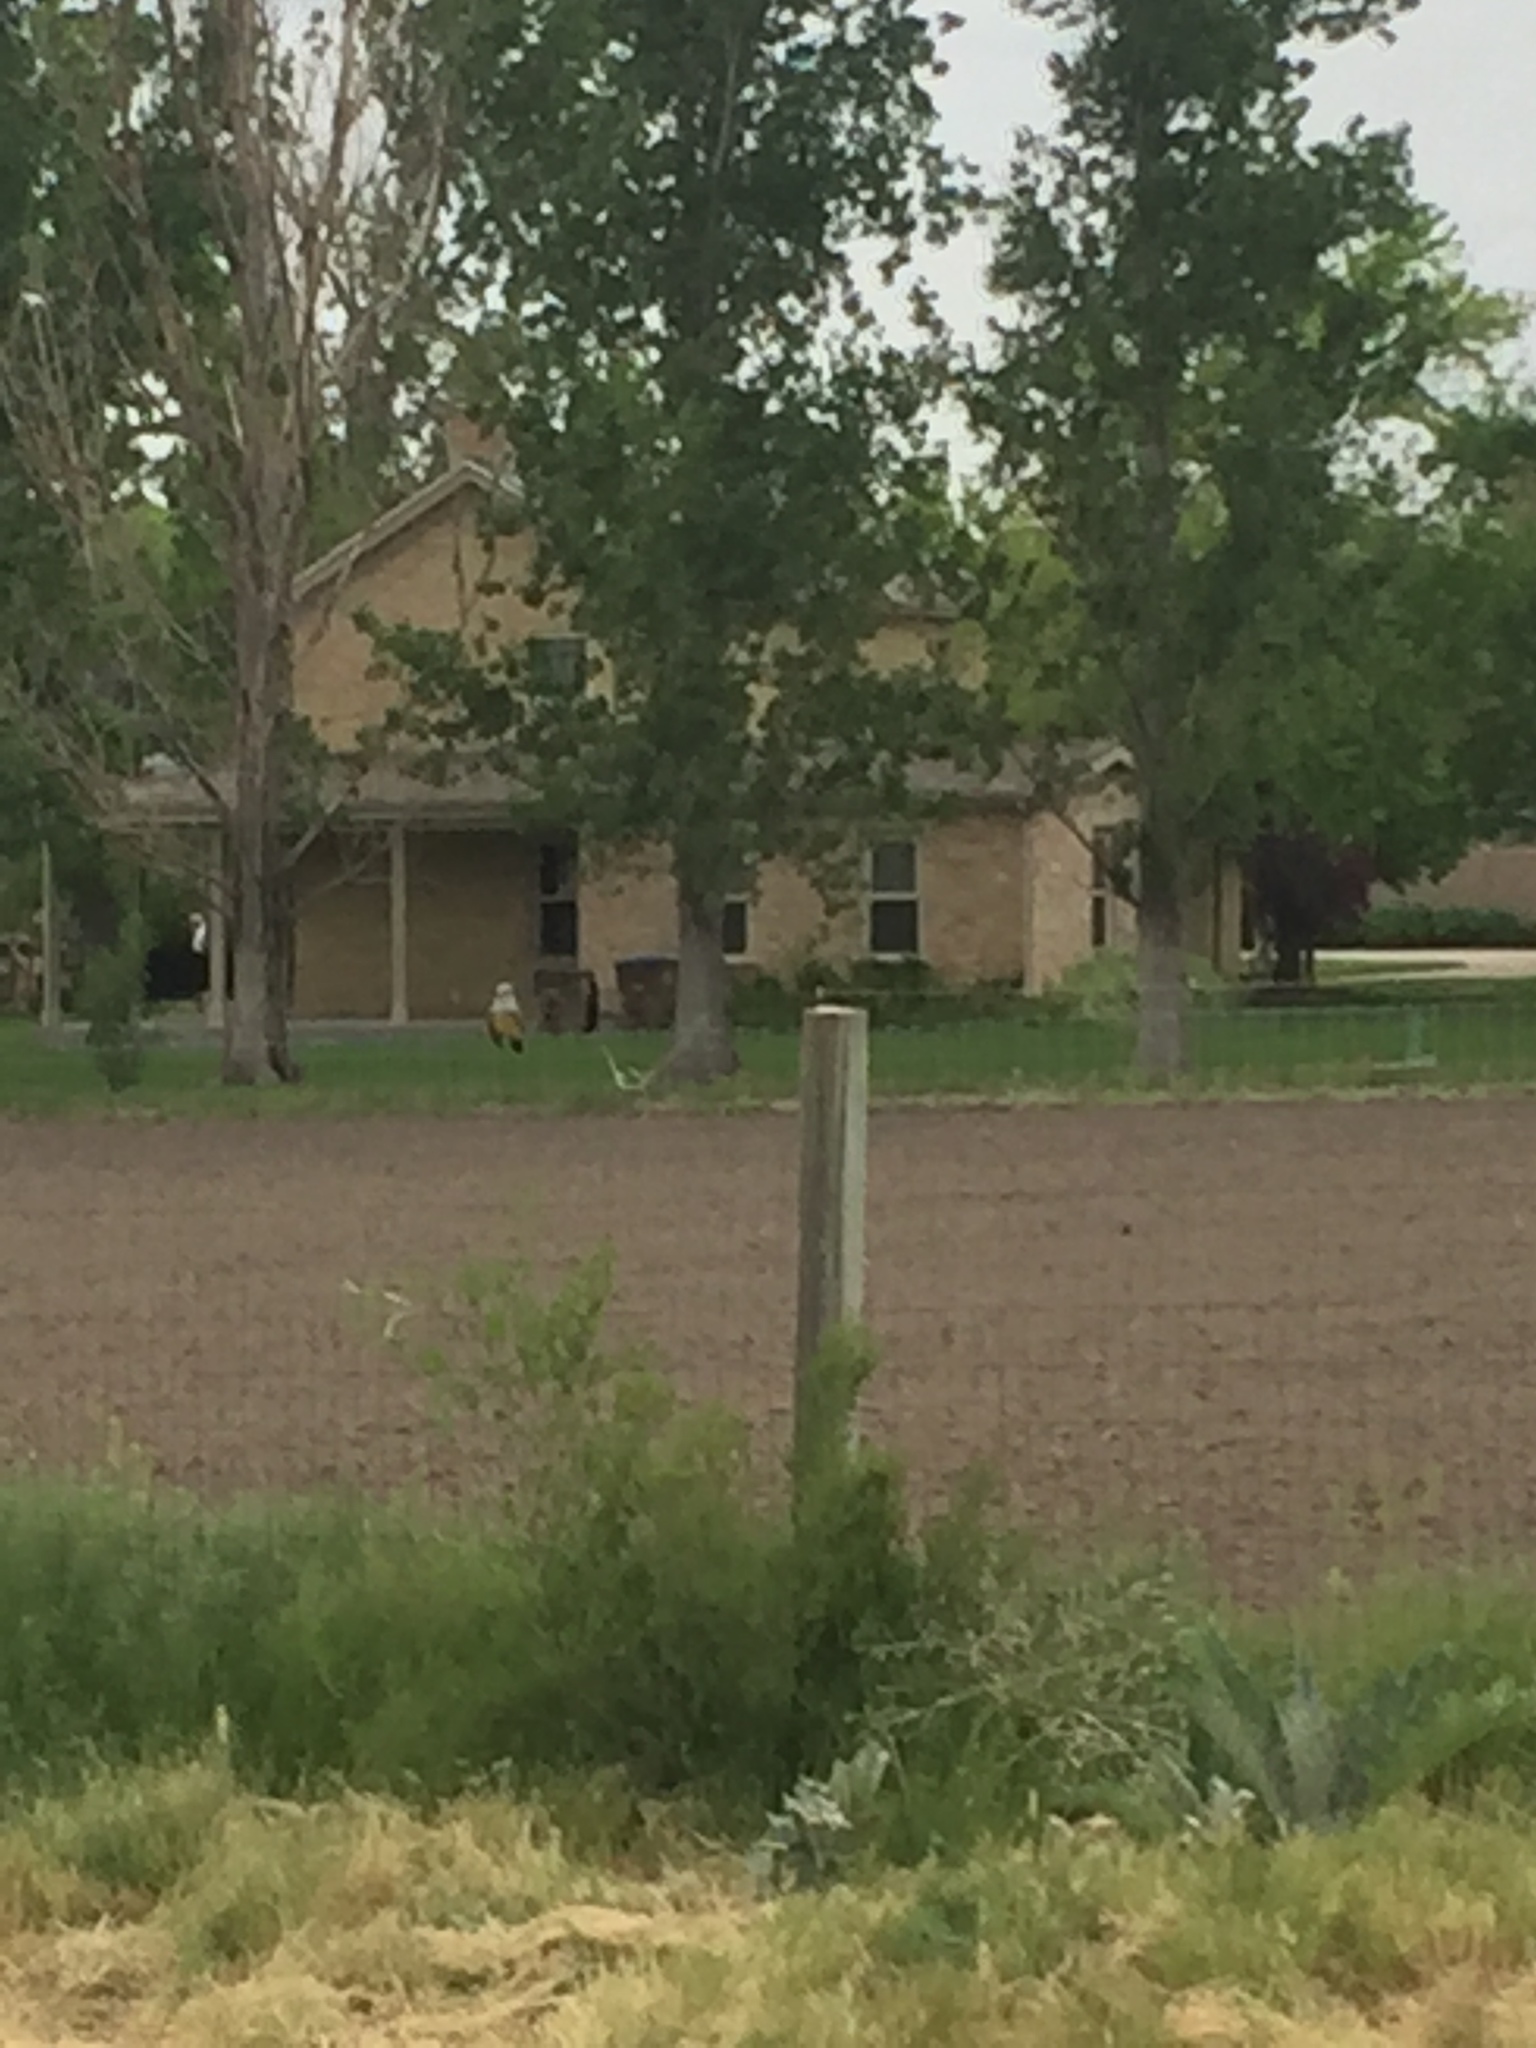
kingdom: Animalia
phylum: Chordata
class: Aves
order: Passeriformes
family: Tyrannidae
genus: Tyrannus
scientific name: Tyrannus verticalis
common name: Western kingbird
